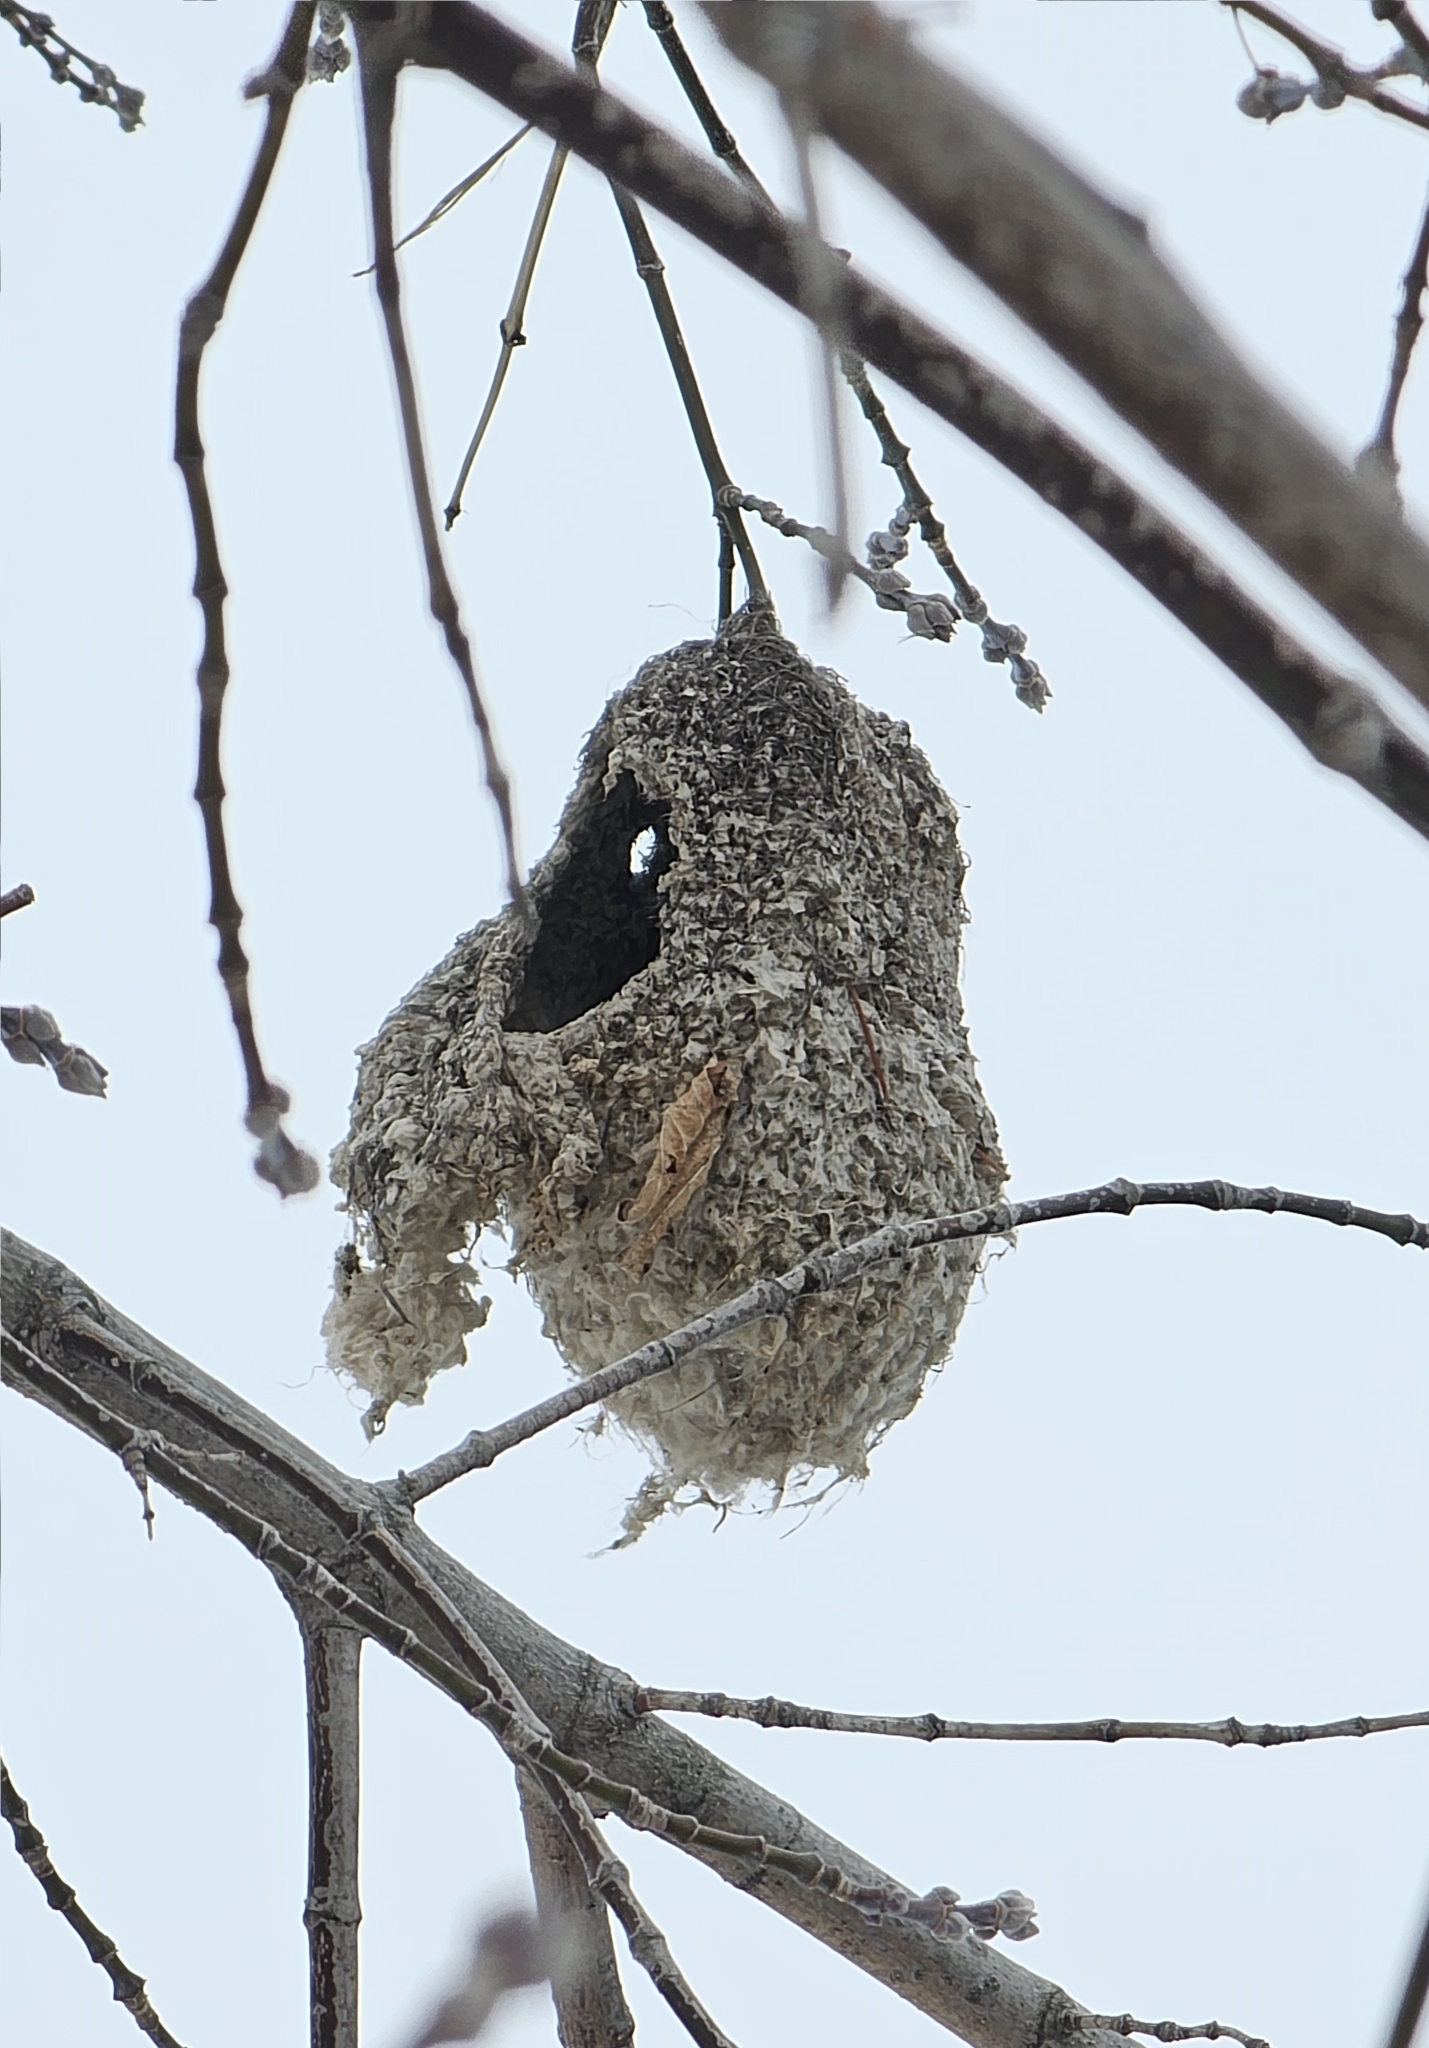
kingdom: Animalia
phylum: Chordata
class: Aves
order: Passeriformes
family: Remizidae
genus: Remiz
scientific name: Remiz pendulinus
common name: Eurasian penduline tit
